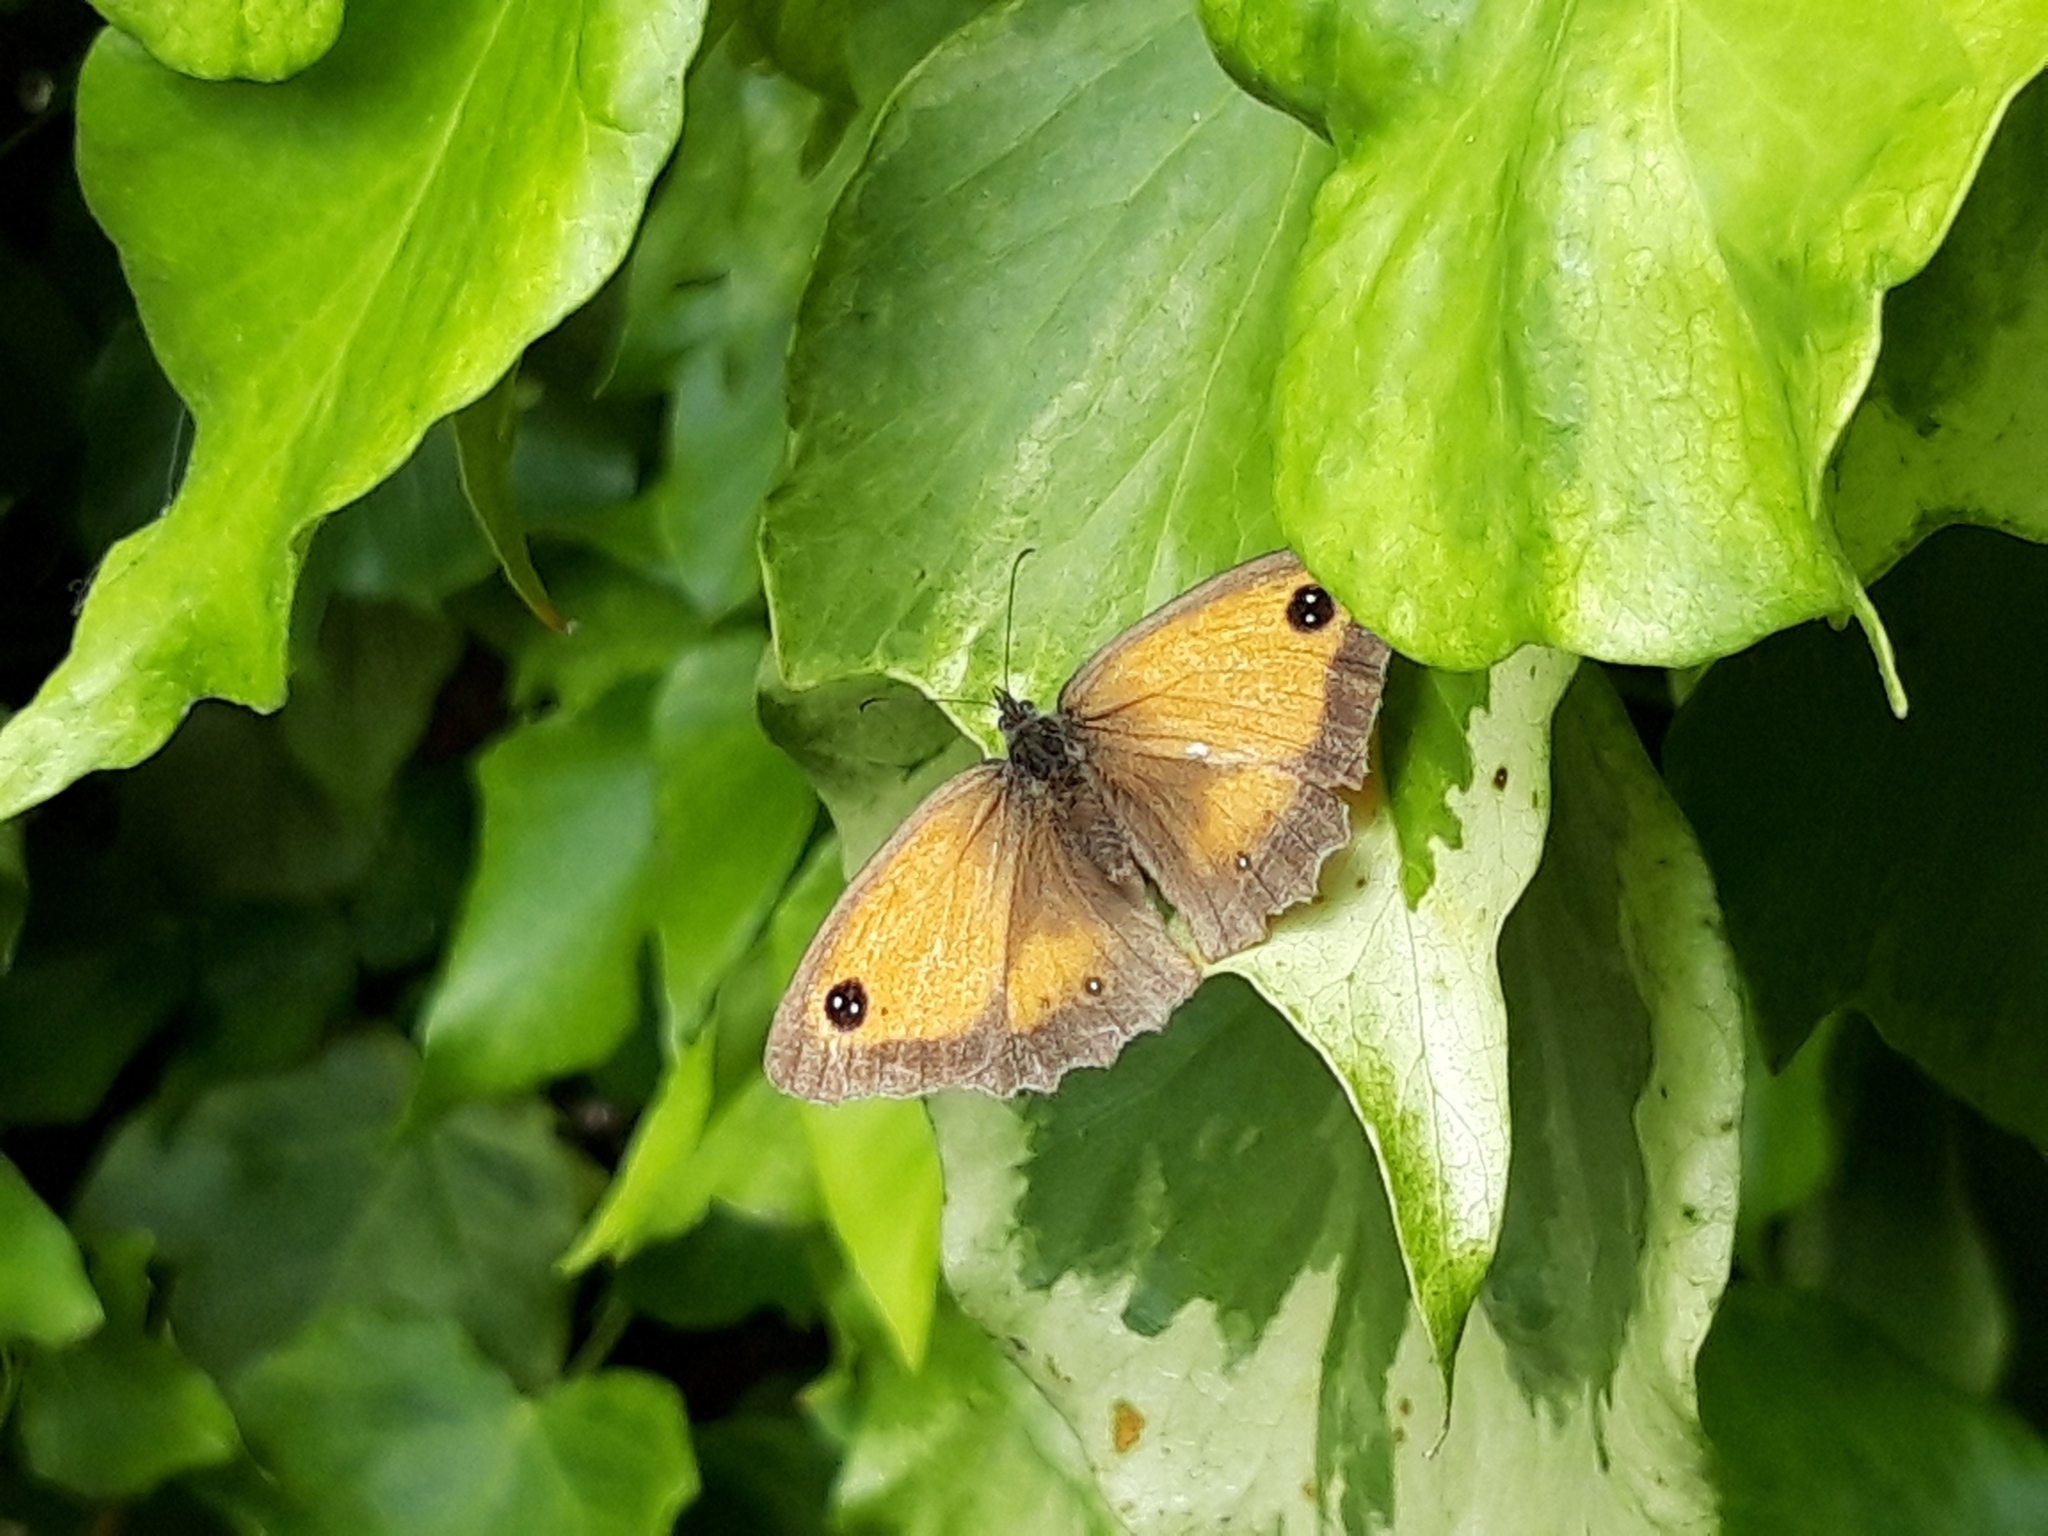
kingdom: Animalia
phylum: Arthropoda
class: Insecta
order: Lepidoptera
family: Nymphalidae
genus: Pyronia
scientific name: Pyronia tithonus
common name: Gatekeeper
